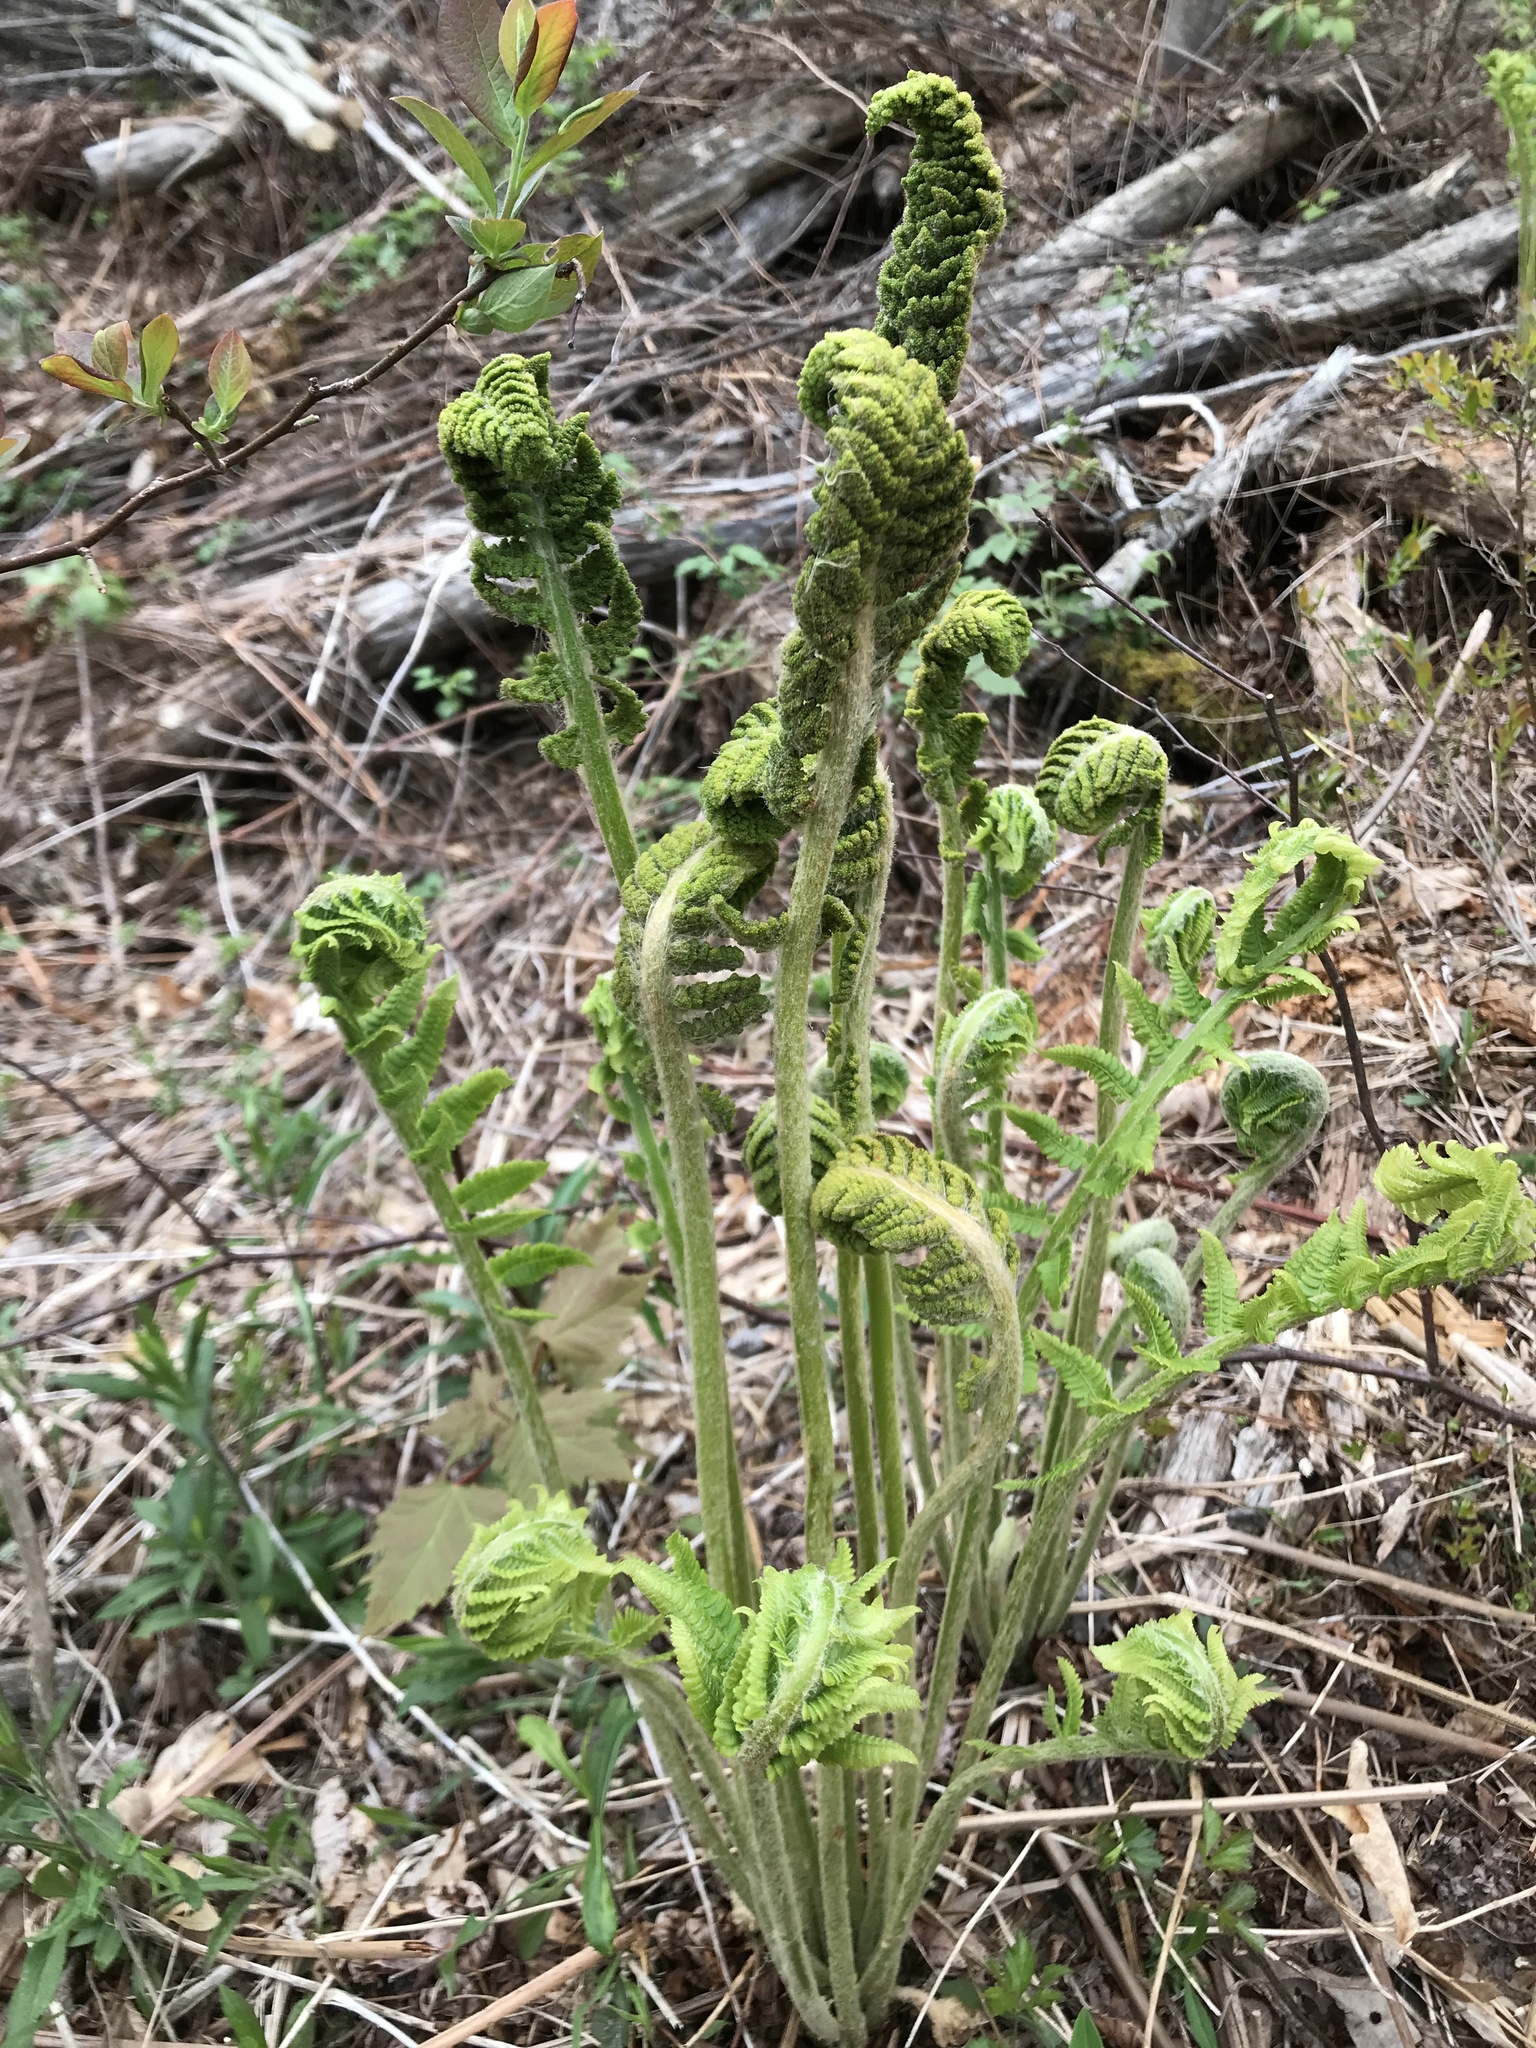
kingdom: Plantae
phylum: Tracheophyta
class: Polypodiopsida
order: Osmundales
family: Osmundaceae
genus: Osmundastrum
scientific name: Osmundastrum cinnamomeum
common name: Cinnamon fern
